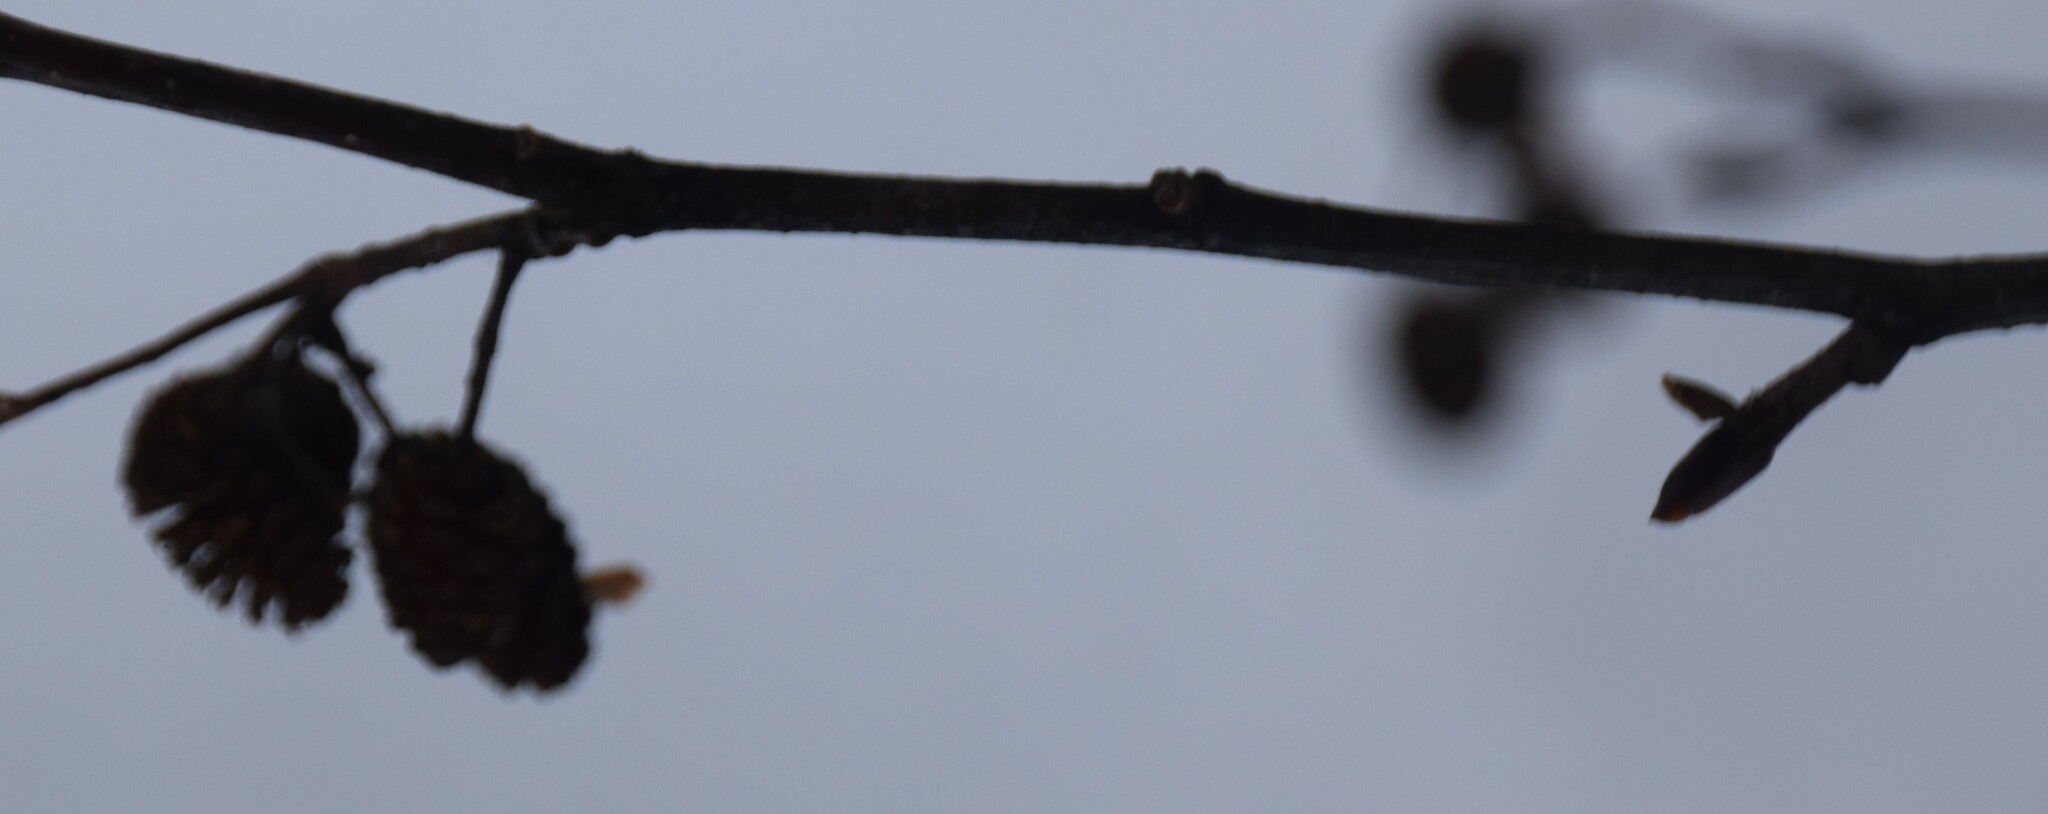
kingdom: Plantae
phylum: Tracheophyta
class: Magnoliopsida
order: Fagales
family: Betulaceae
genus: Alnus
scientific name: Alnus alnobetula
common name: Green alder
